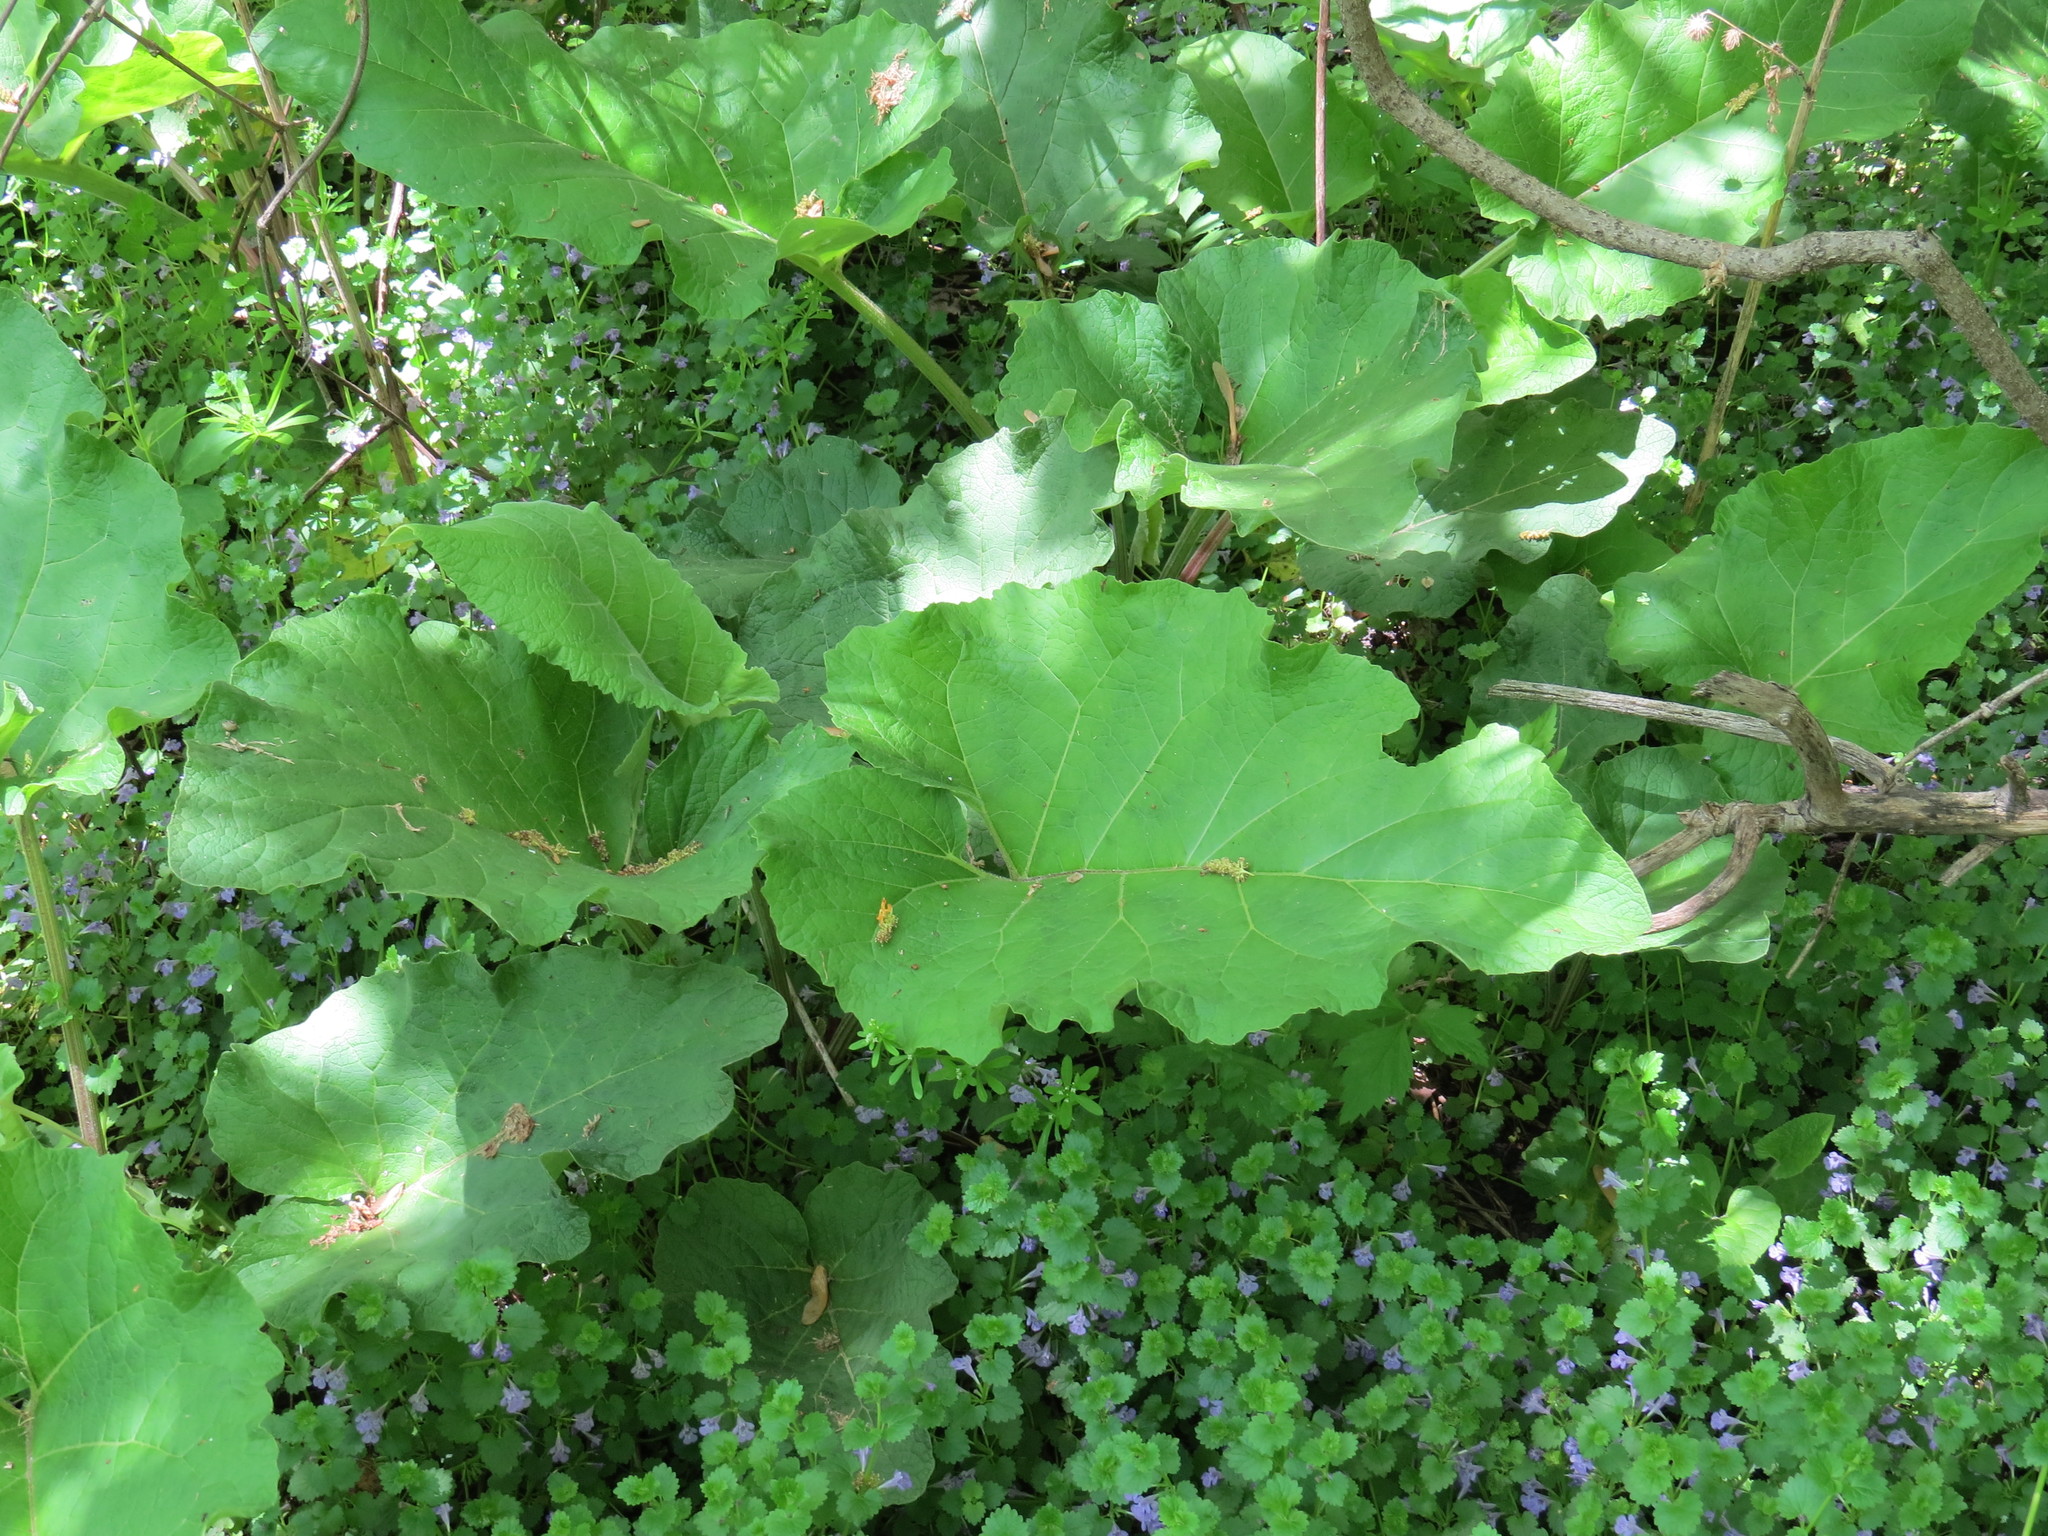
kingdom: Plantae
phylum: Tracheophyta
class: Magnoliopsida
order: Asterales
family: Asteraceae
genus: Arctium
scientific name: Arctium lappa
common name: Greater burdock
